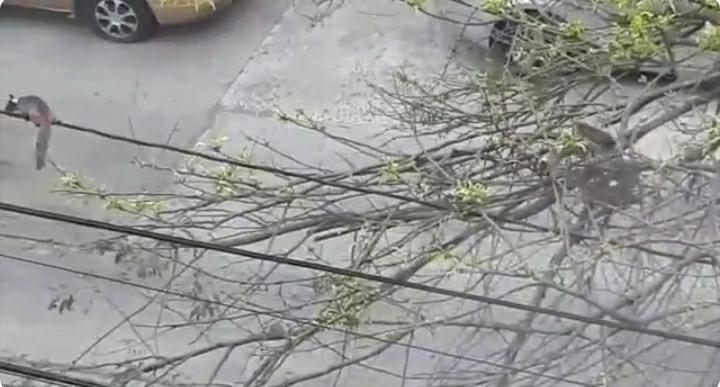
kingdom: Animalia
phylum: Chordata
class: Mammalia
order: Rodentia
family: Sciuridae
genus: Sciurus
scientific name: Sciurus stramineus
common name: Guayaquil squirrel
